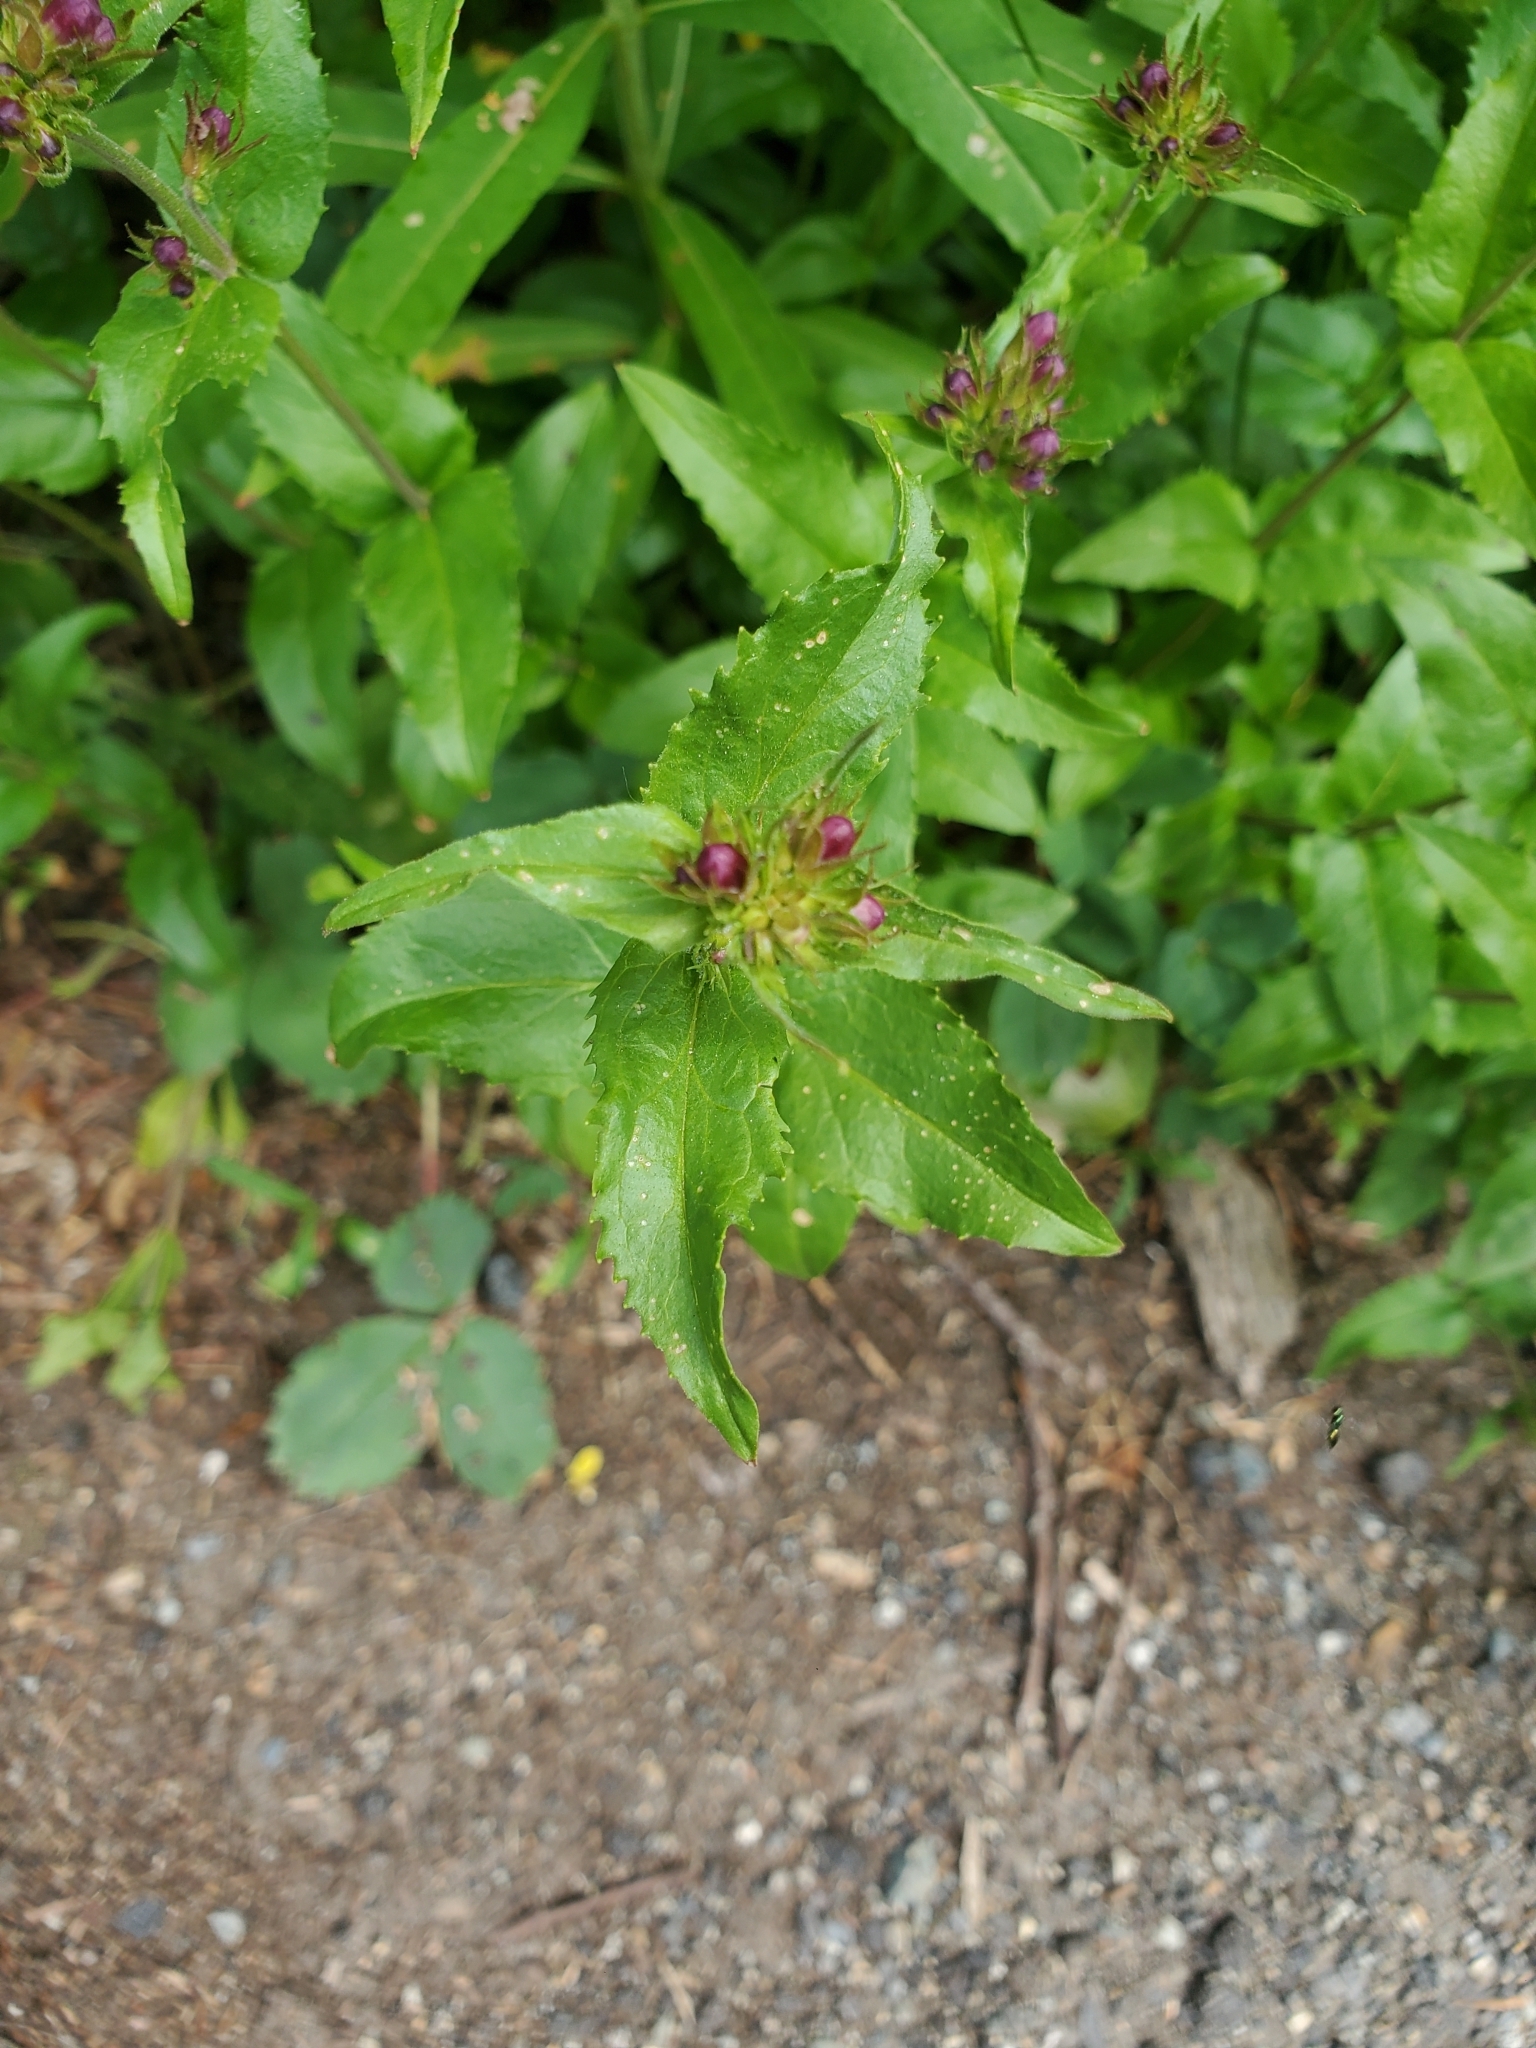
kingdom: Plantae
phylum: Tracheophyta
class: Magnoliopsida
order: Lamiales
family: Plantaginaceae
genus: Penstemon
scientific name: Penstemon serrulatus
